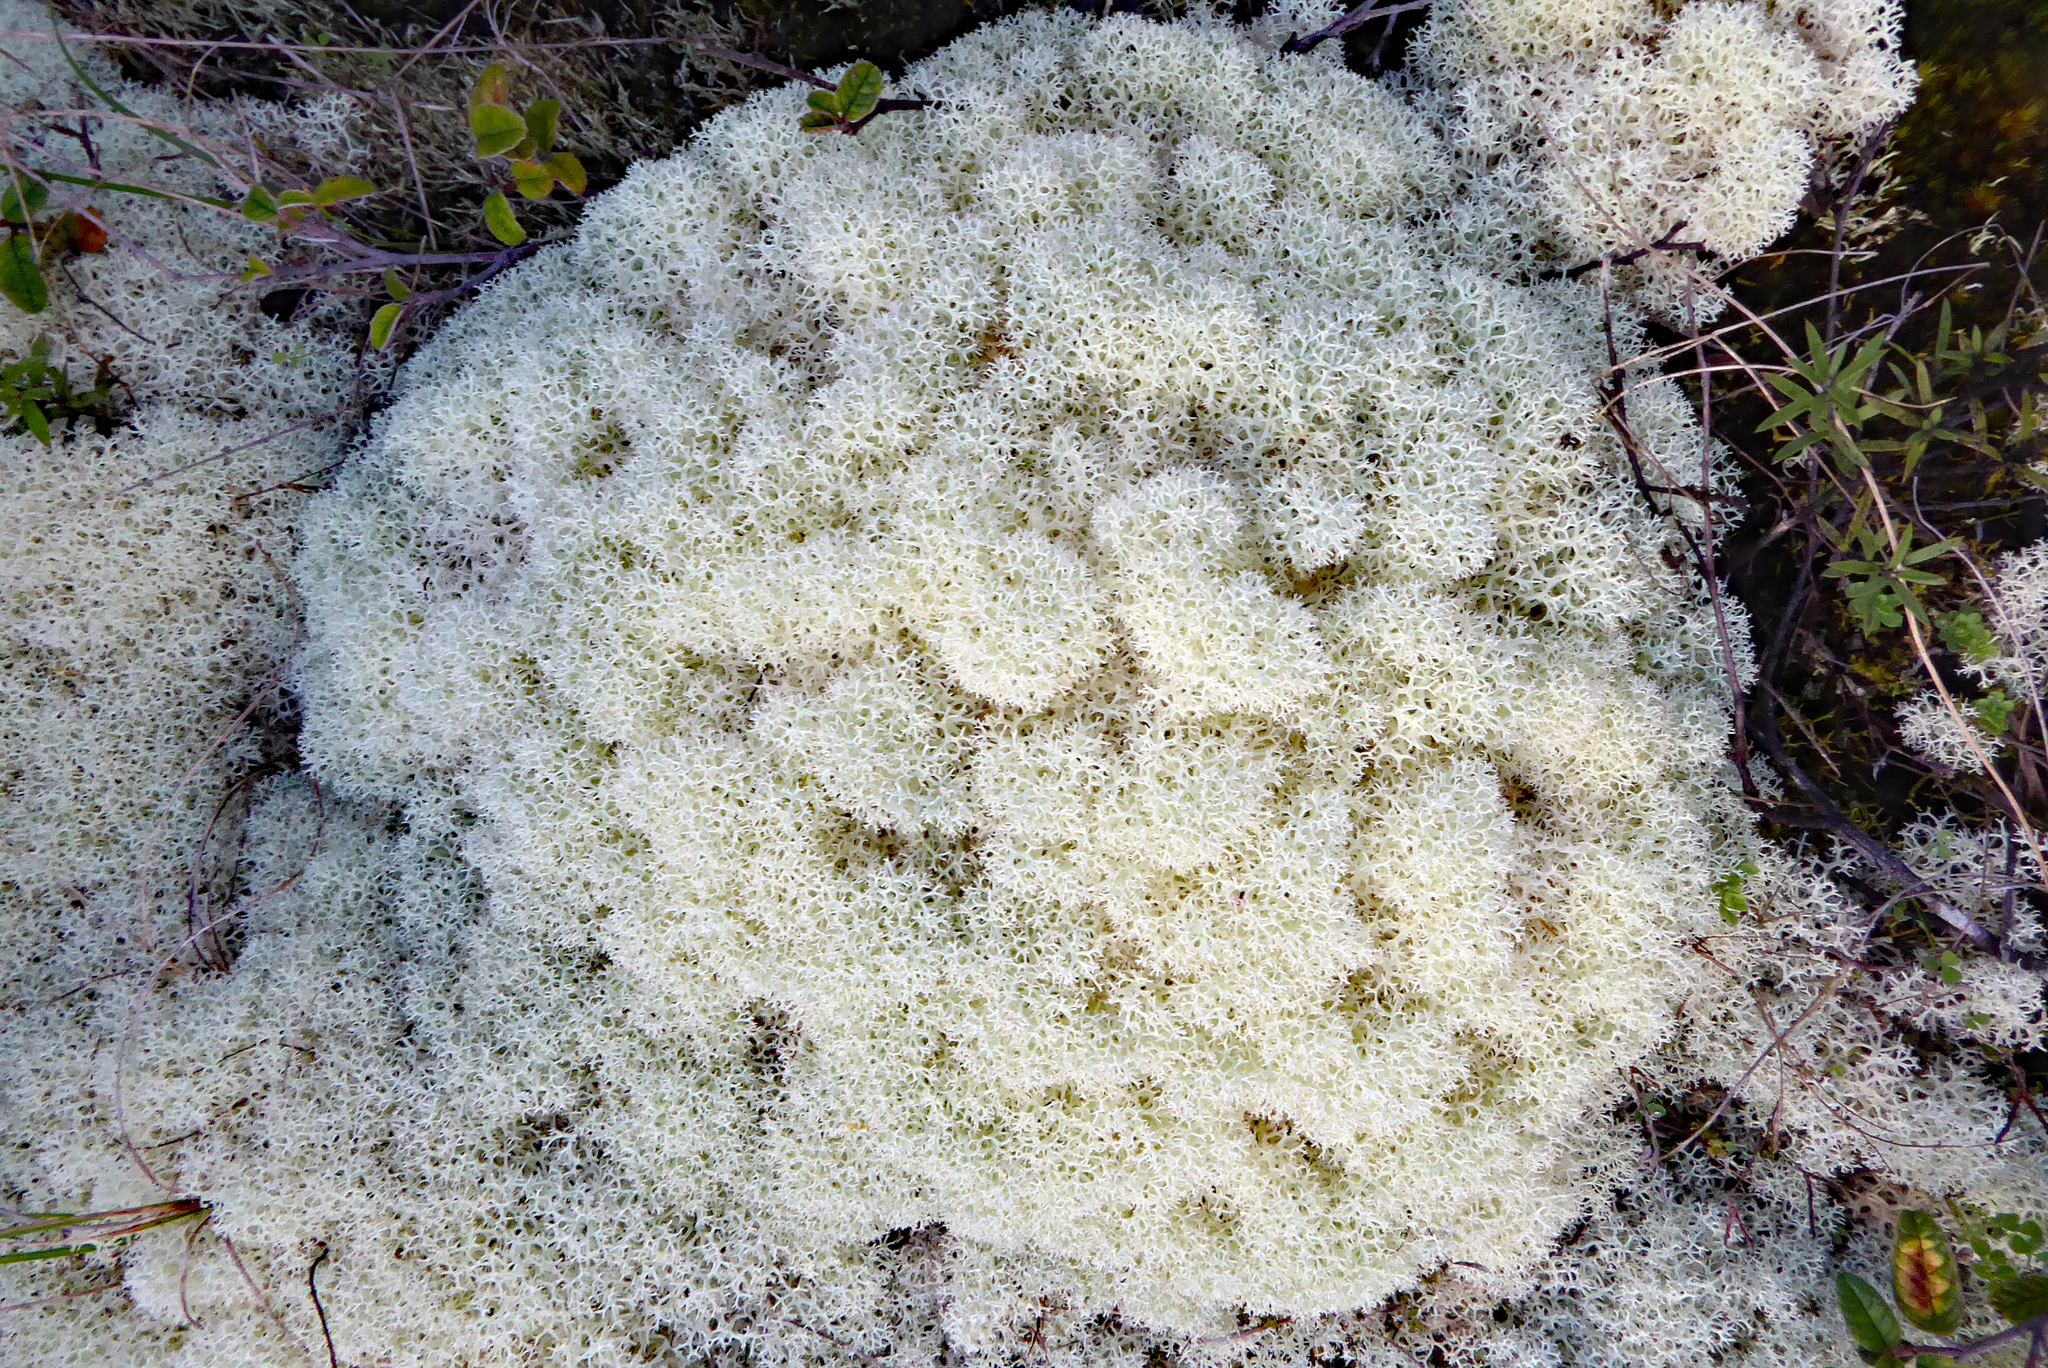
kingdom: Fungi
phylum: Ascomycota
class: Lecanoromycetes
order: Lecanorales
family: Cladoniaceae
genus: Cladonia
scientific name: Cladonia confusa
